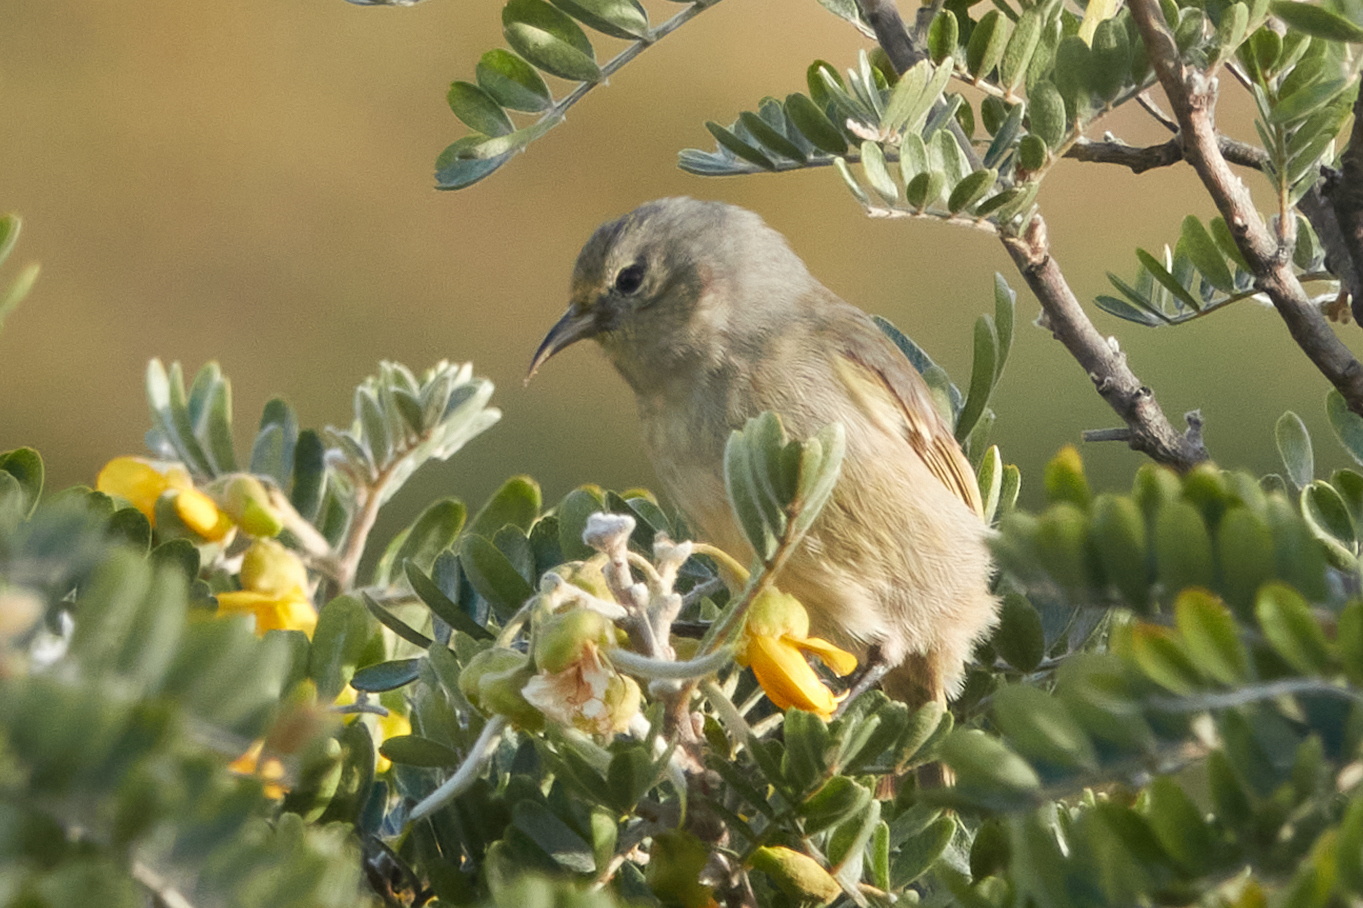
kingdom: Animalia
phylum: Chordata
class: Aves
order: Passeriformes
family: Fringillidae
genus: Chlorodrepanis
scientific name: Chlorodrepanis virens
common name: Hawaii amakihi
